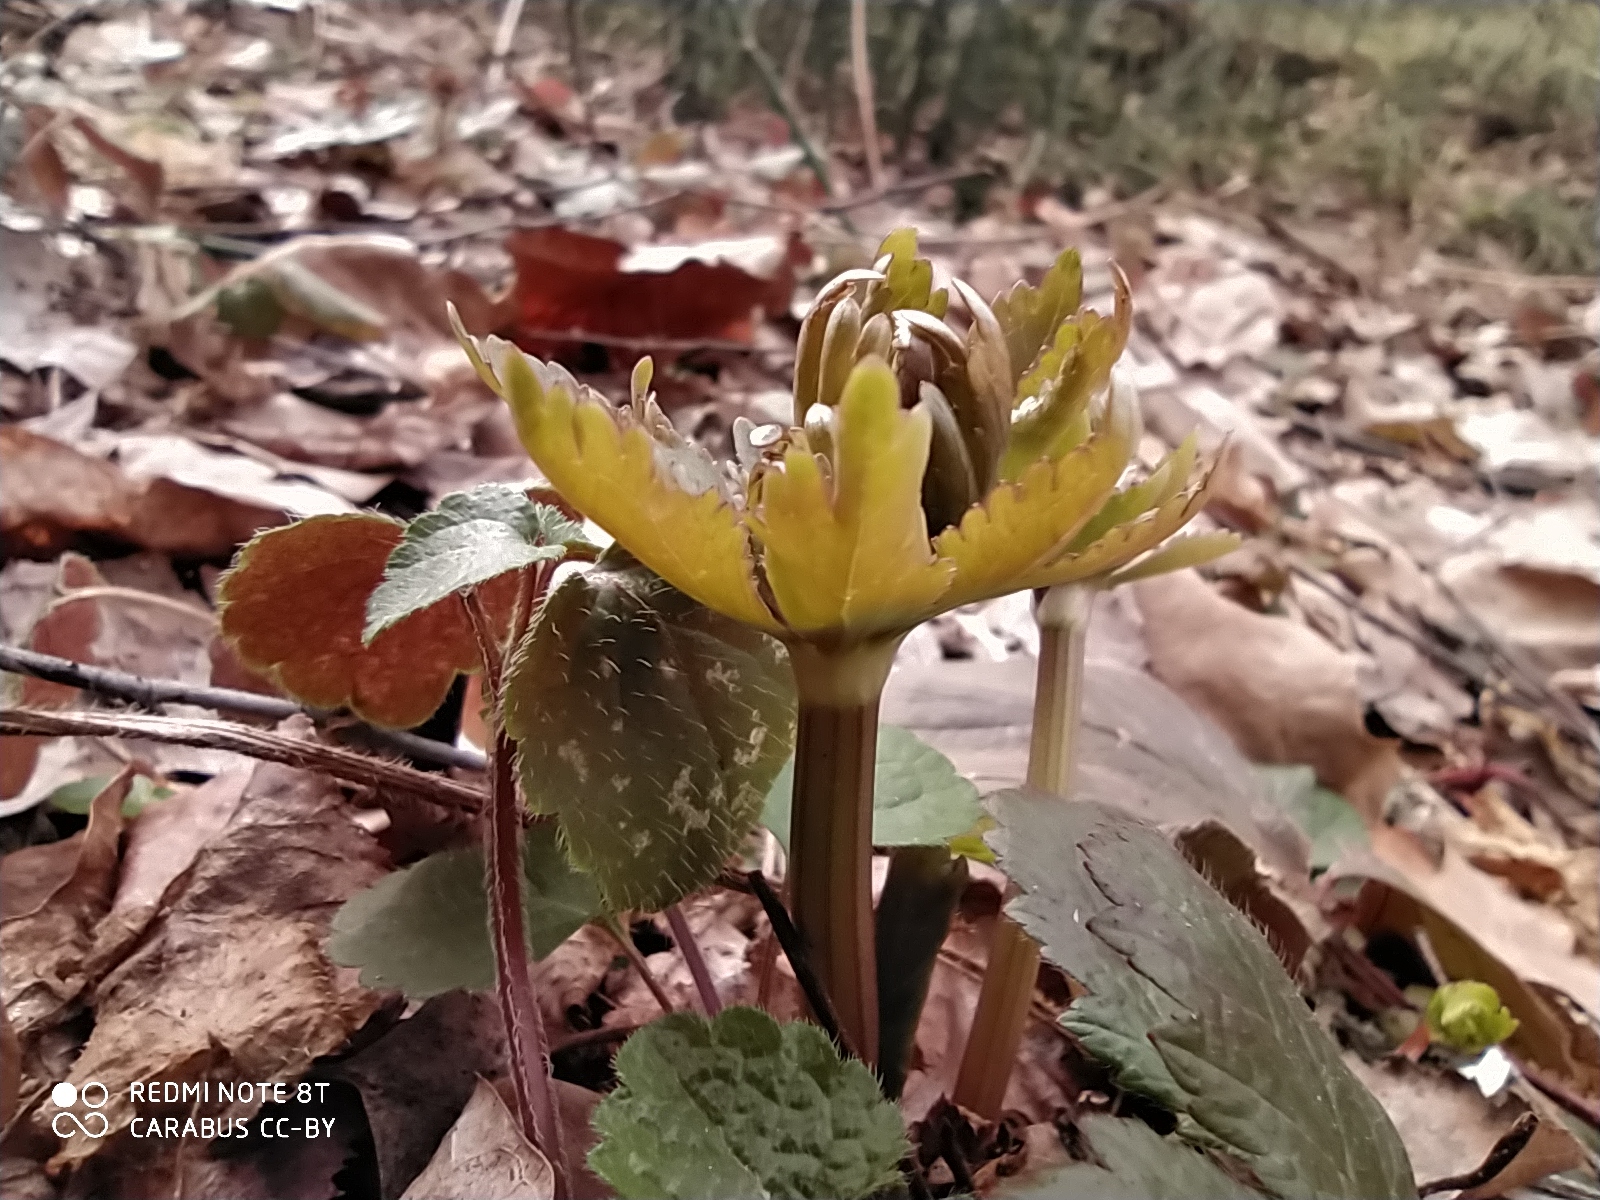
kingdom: Plantae
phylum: Tracheophyta
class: Magnoliopsida
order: Ranunculales
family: Ranunculaceae
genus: Ranunculus
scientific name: Ranunculus cassubicus
